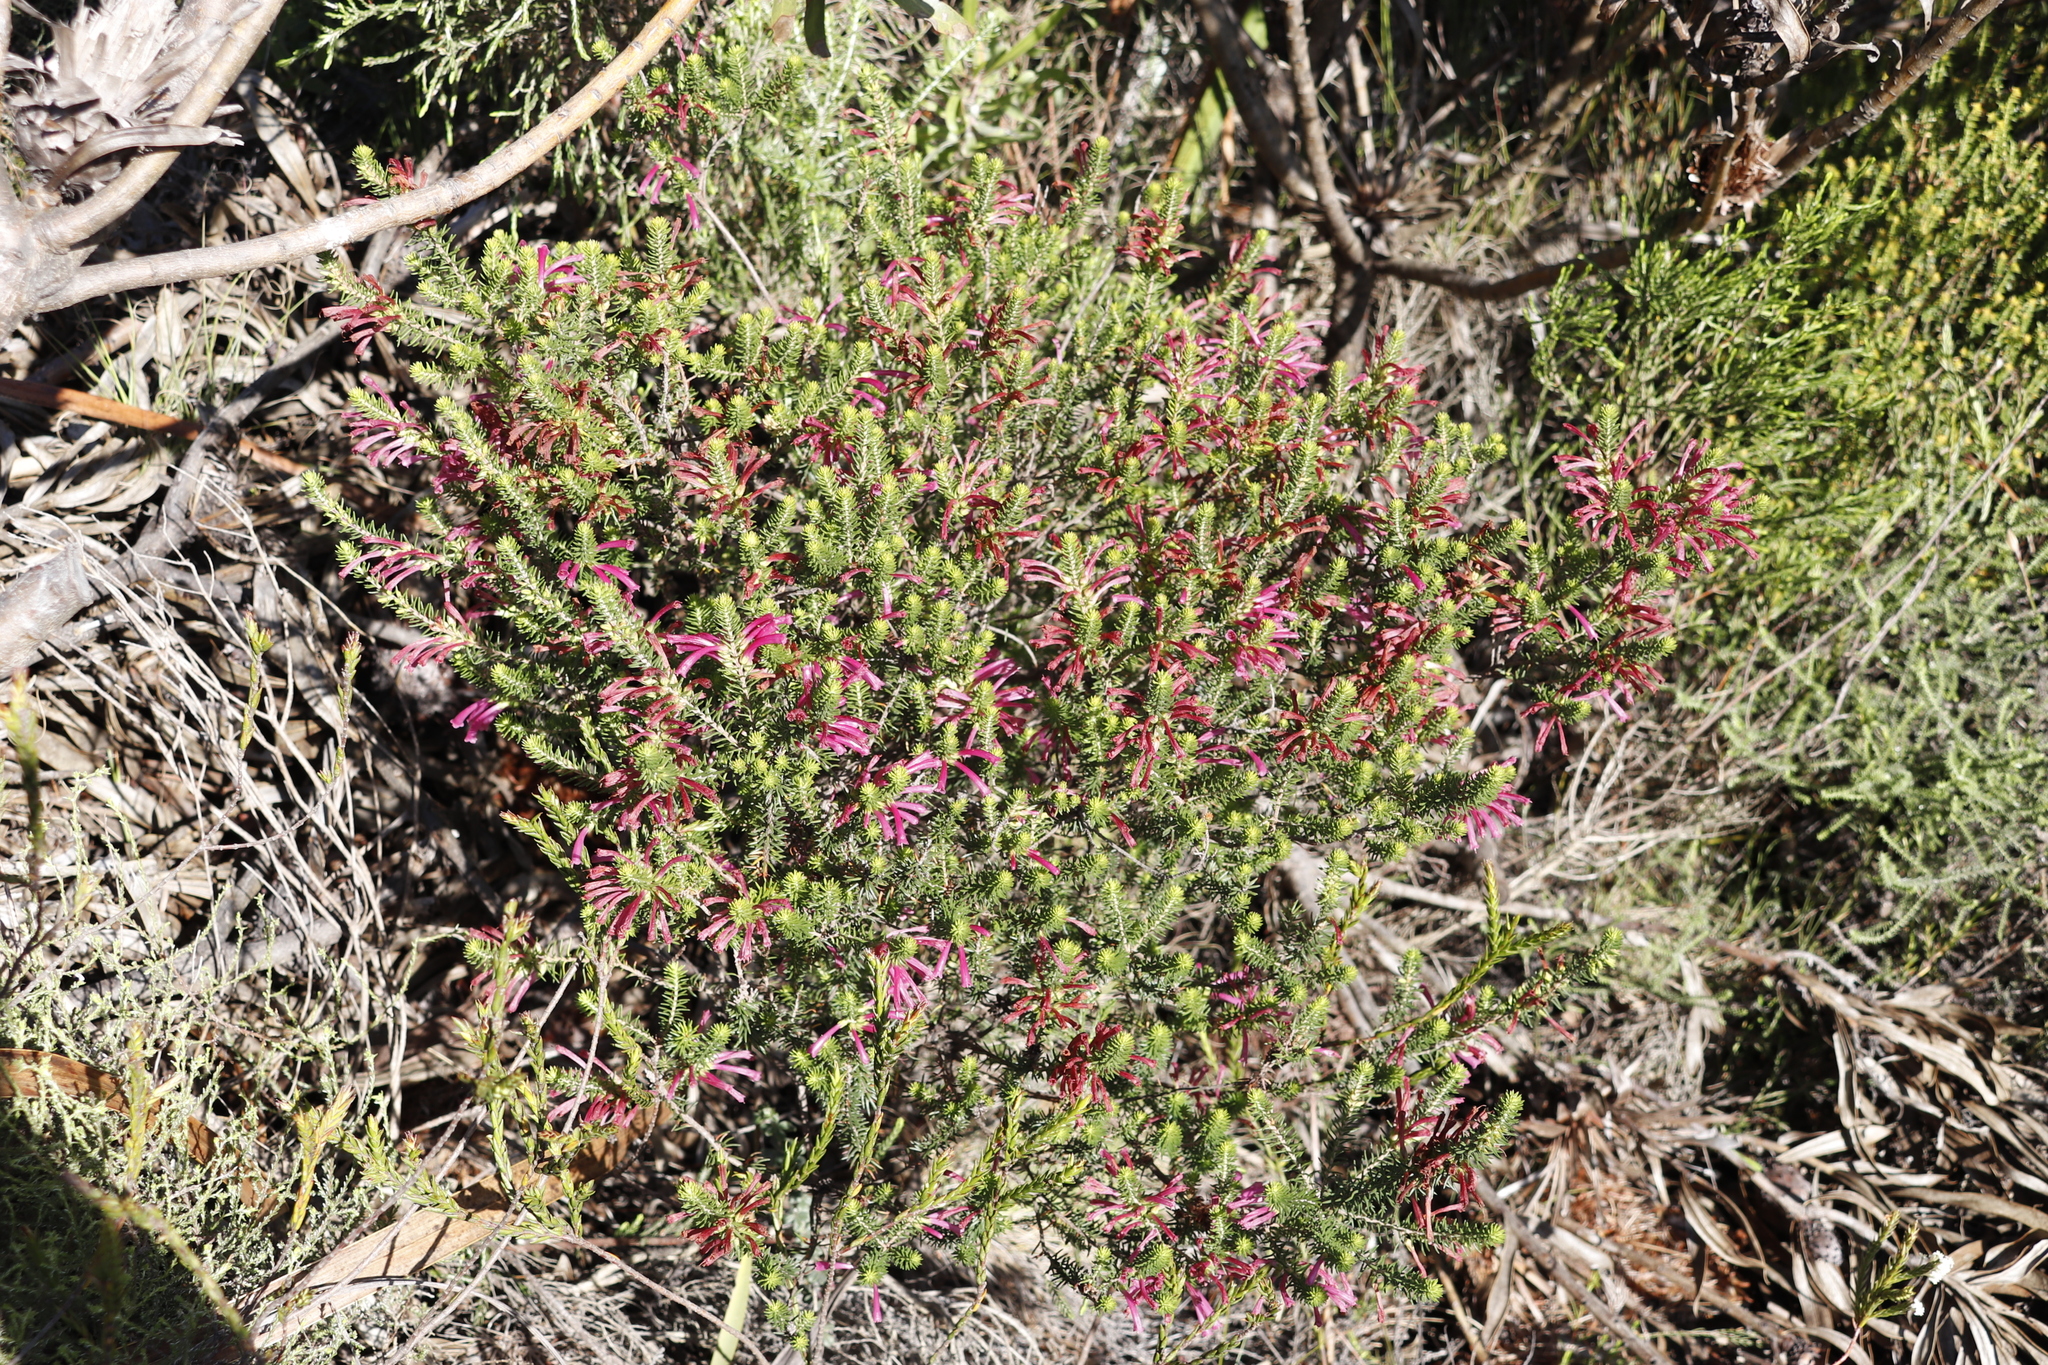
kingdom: Plantae
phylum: Tracheophyta
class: Magnoliopsida
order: Ericales
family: Ericaceae
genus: Erica
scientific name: Erica abietina
